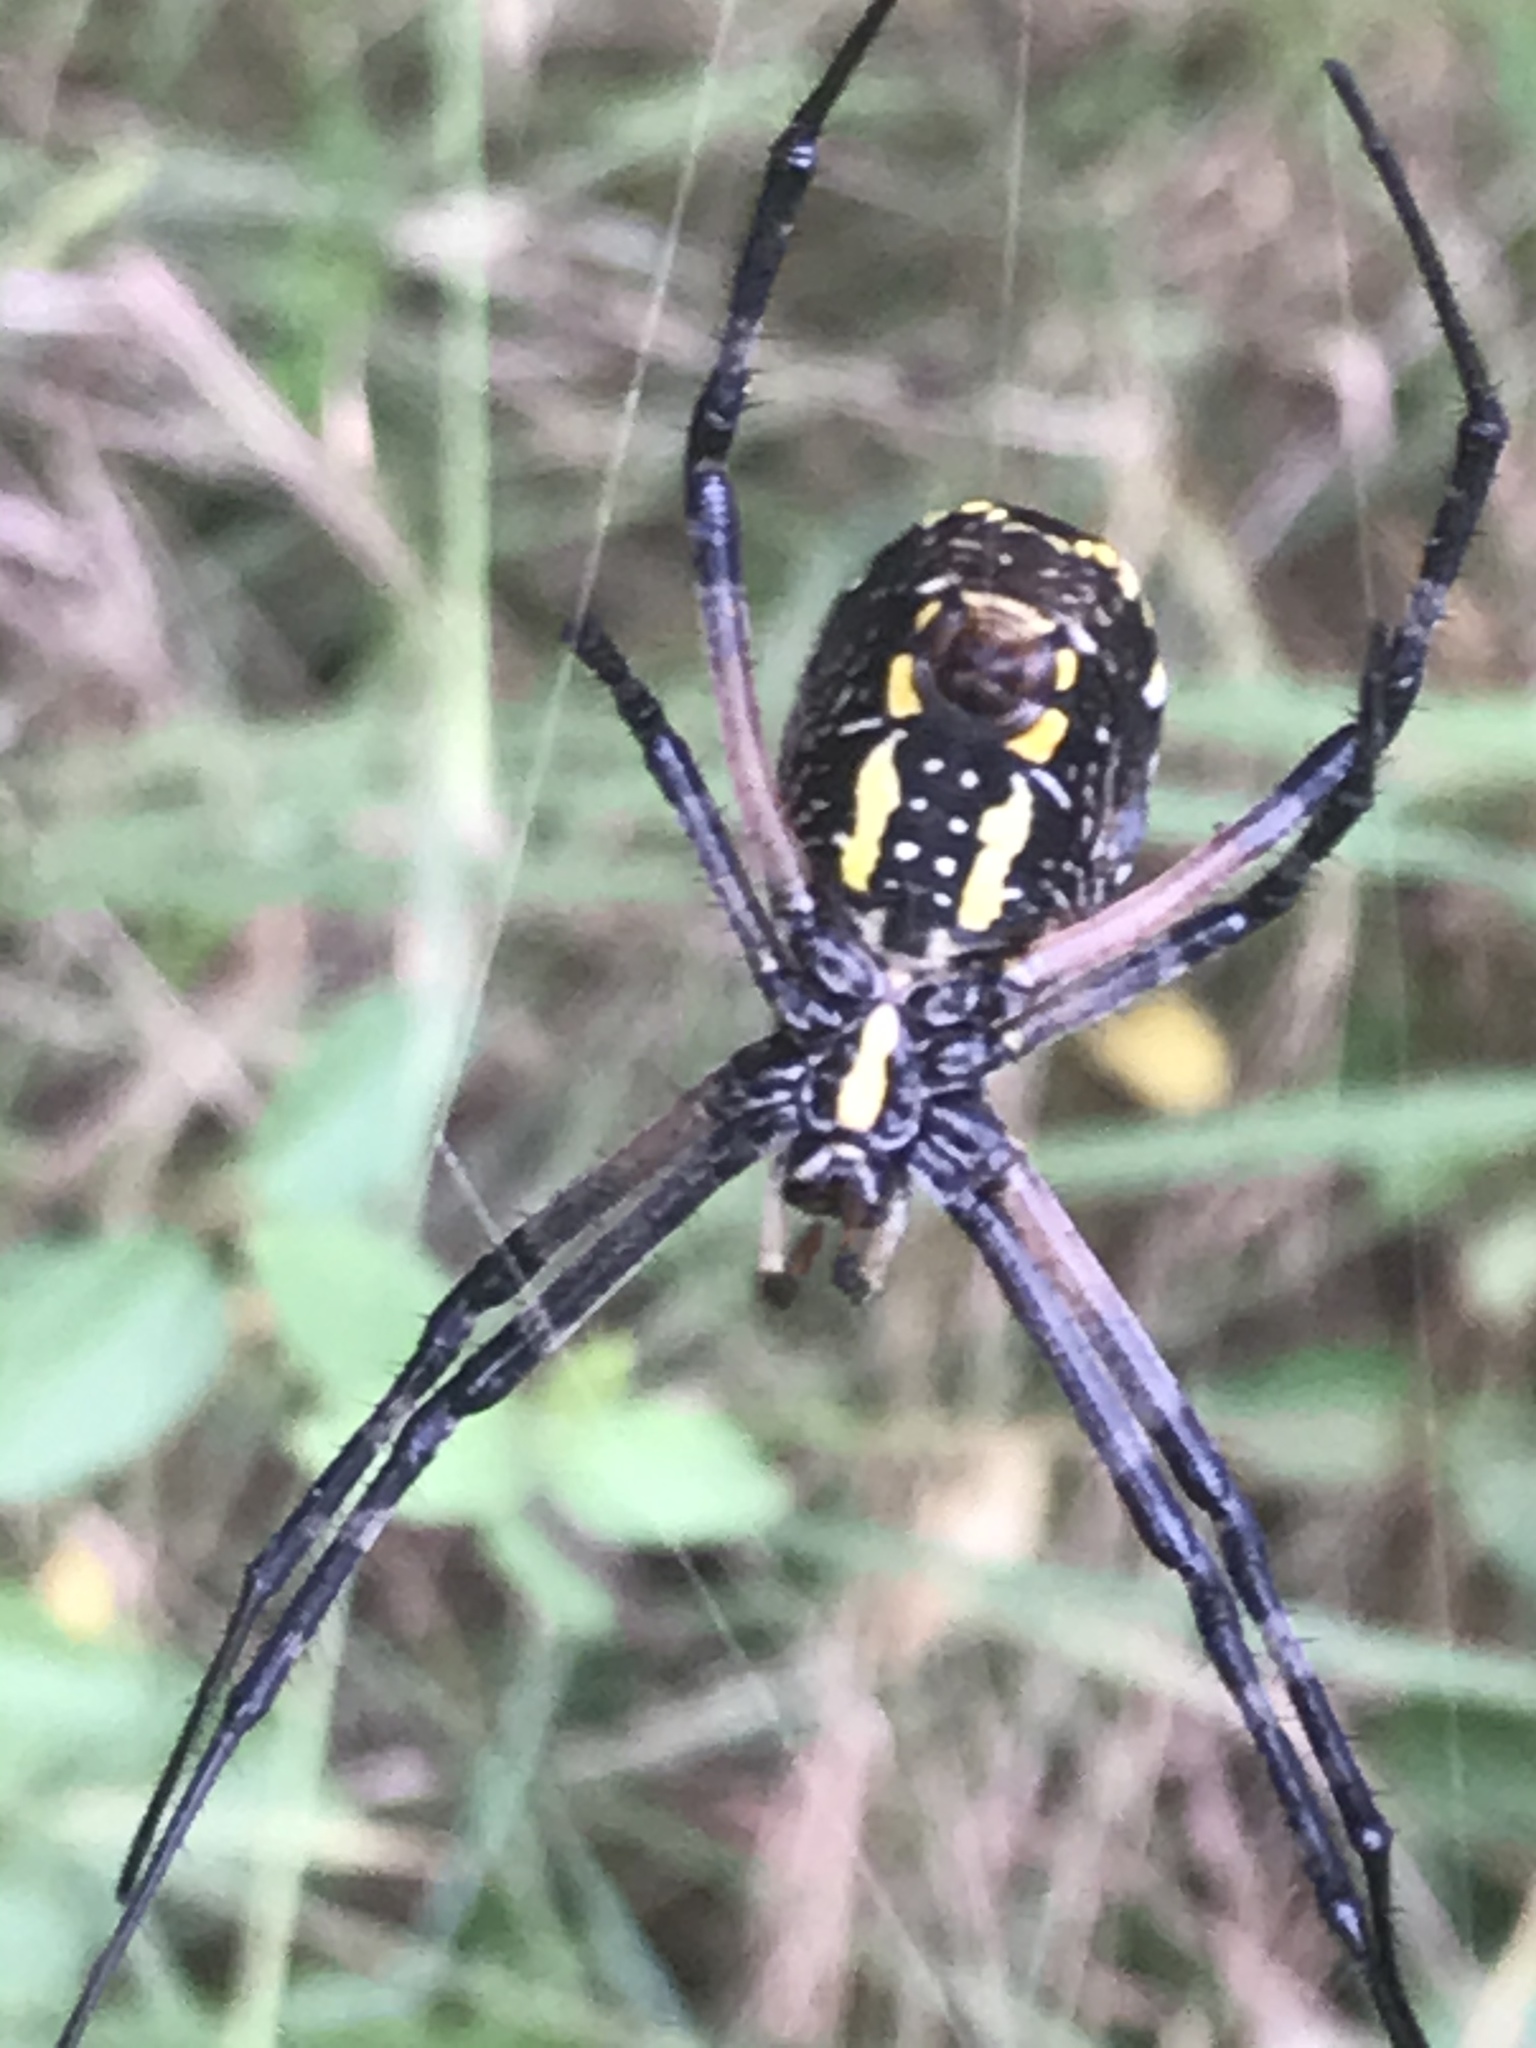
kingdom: Animalia
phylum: Arthropoda
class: Arachnida
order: Araneae
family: Araneidae
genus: Argiope
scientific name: Argiope aurantia
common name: Orb weavers
